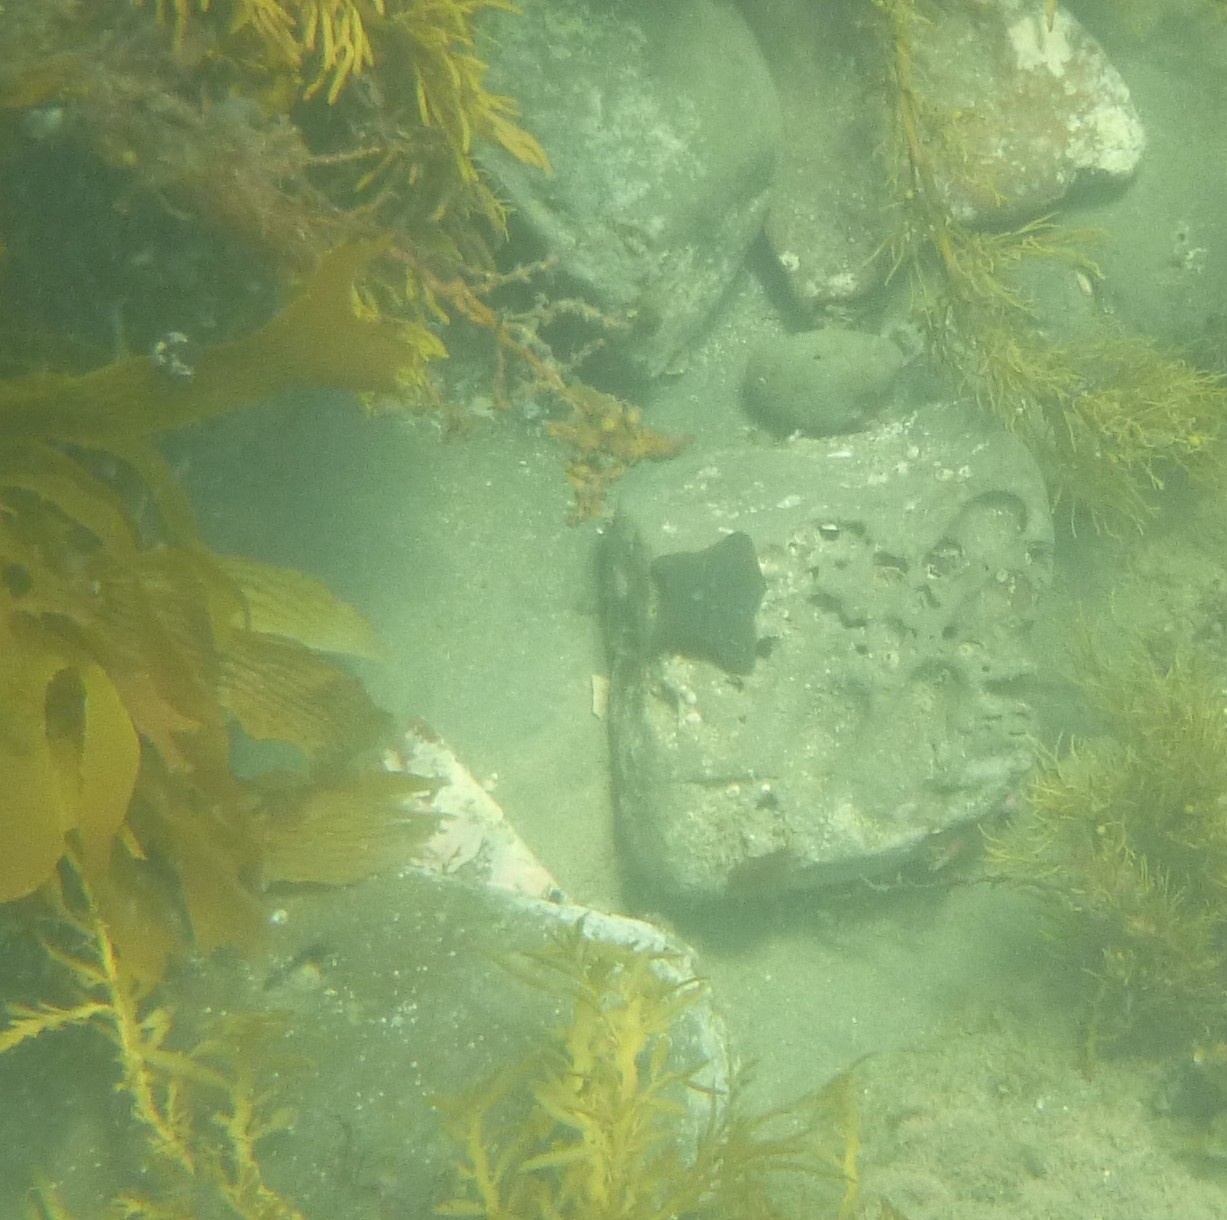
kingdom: Animalia
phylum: Echinodermata
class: Asteroidea
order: Valvatida
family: Asterinidae
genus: Patiriella
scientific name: Patiriella regularis
